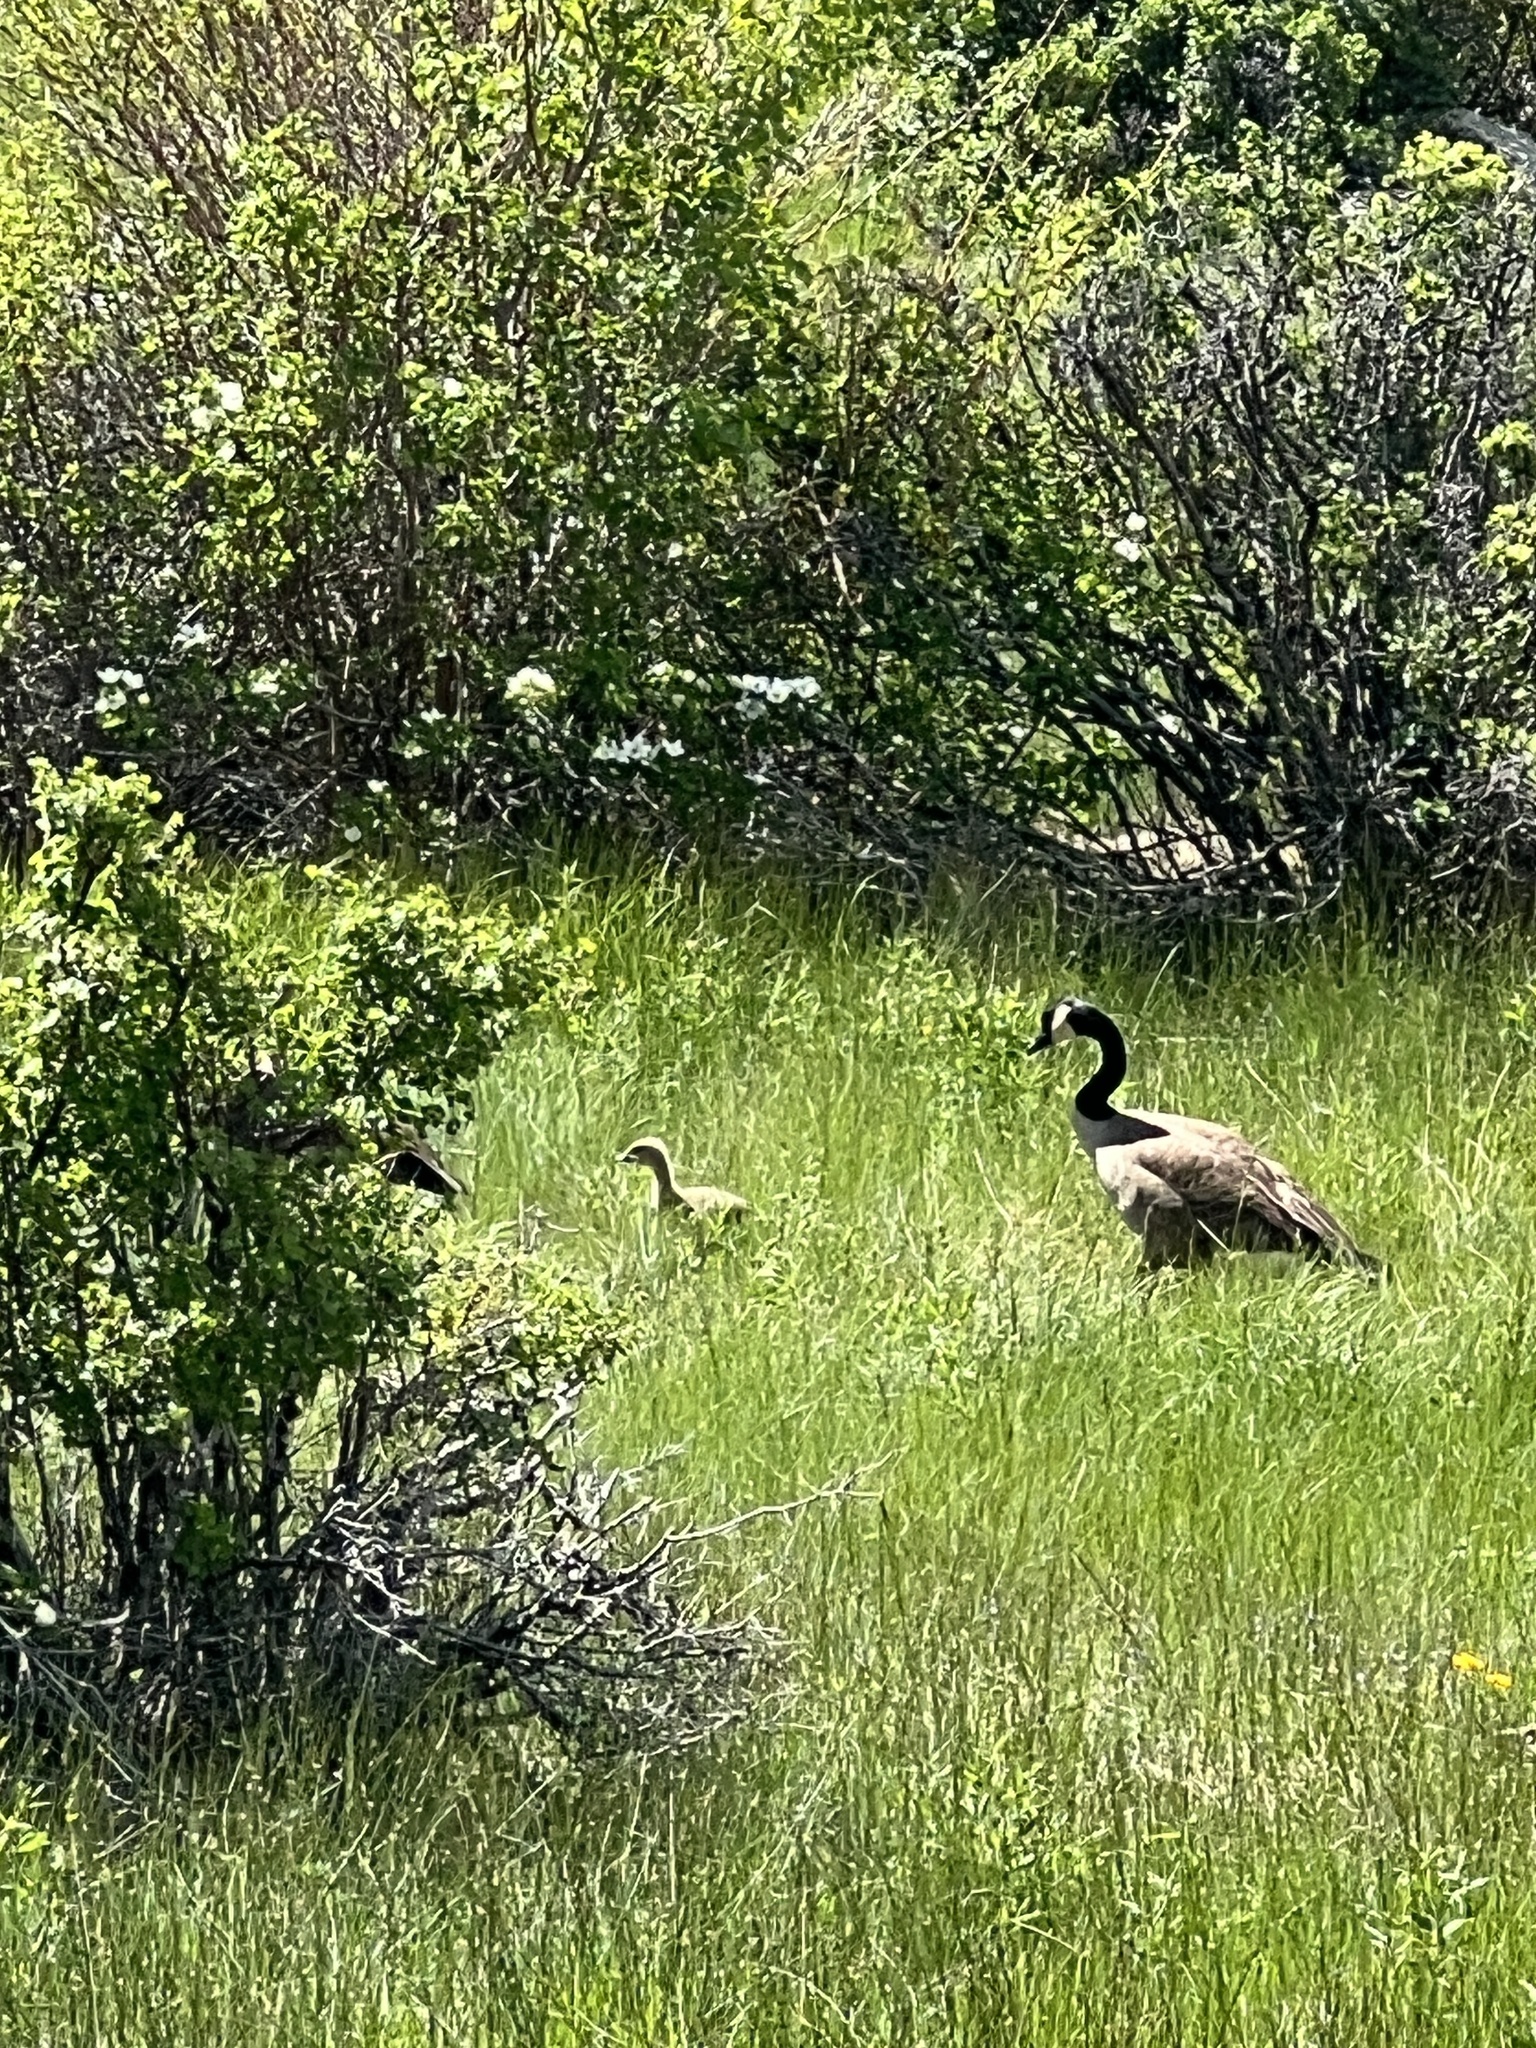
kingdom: Animalia
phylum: Chordata
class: Aves
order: Anseriformes
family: Anatidae
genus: Branta
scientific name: Branta canadensis
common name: Canada goose
